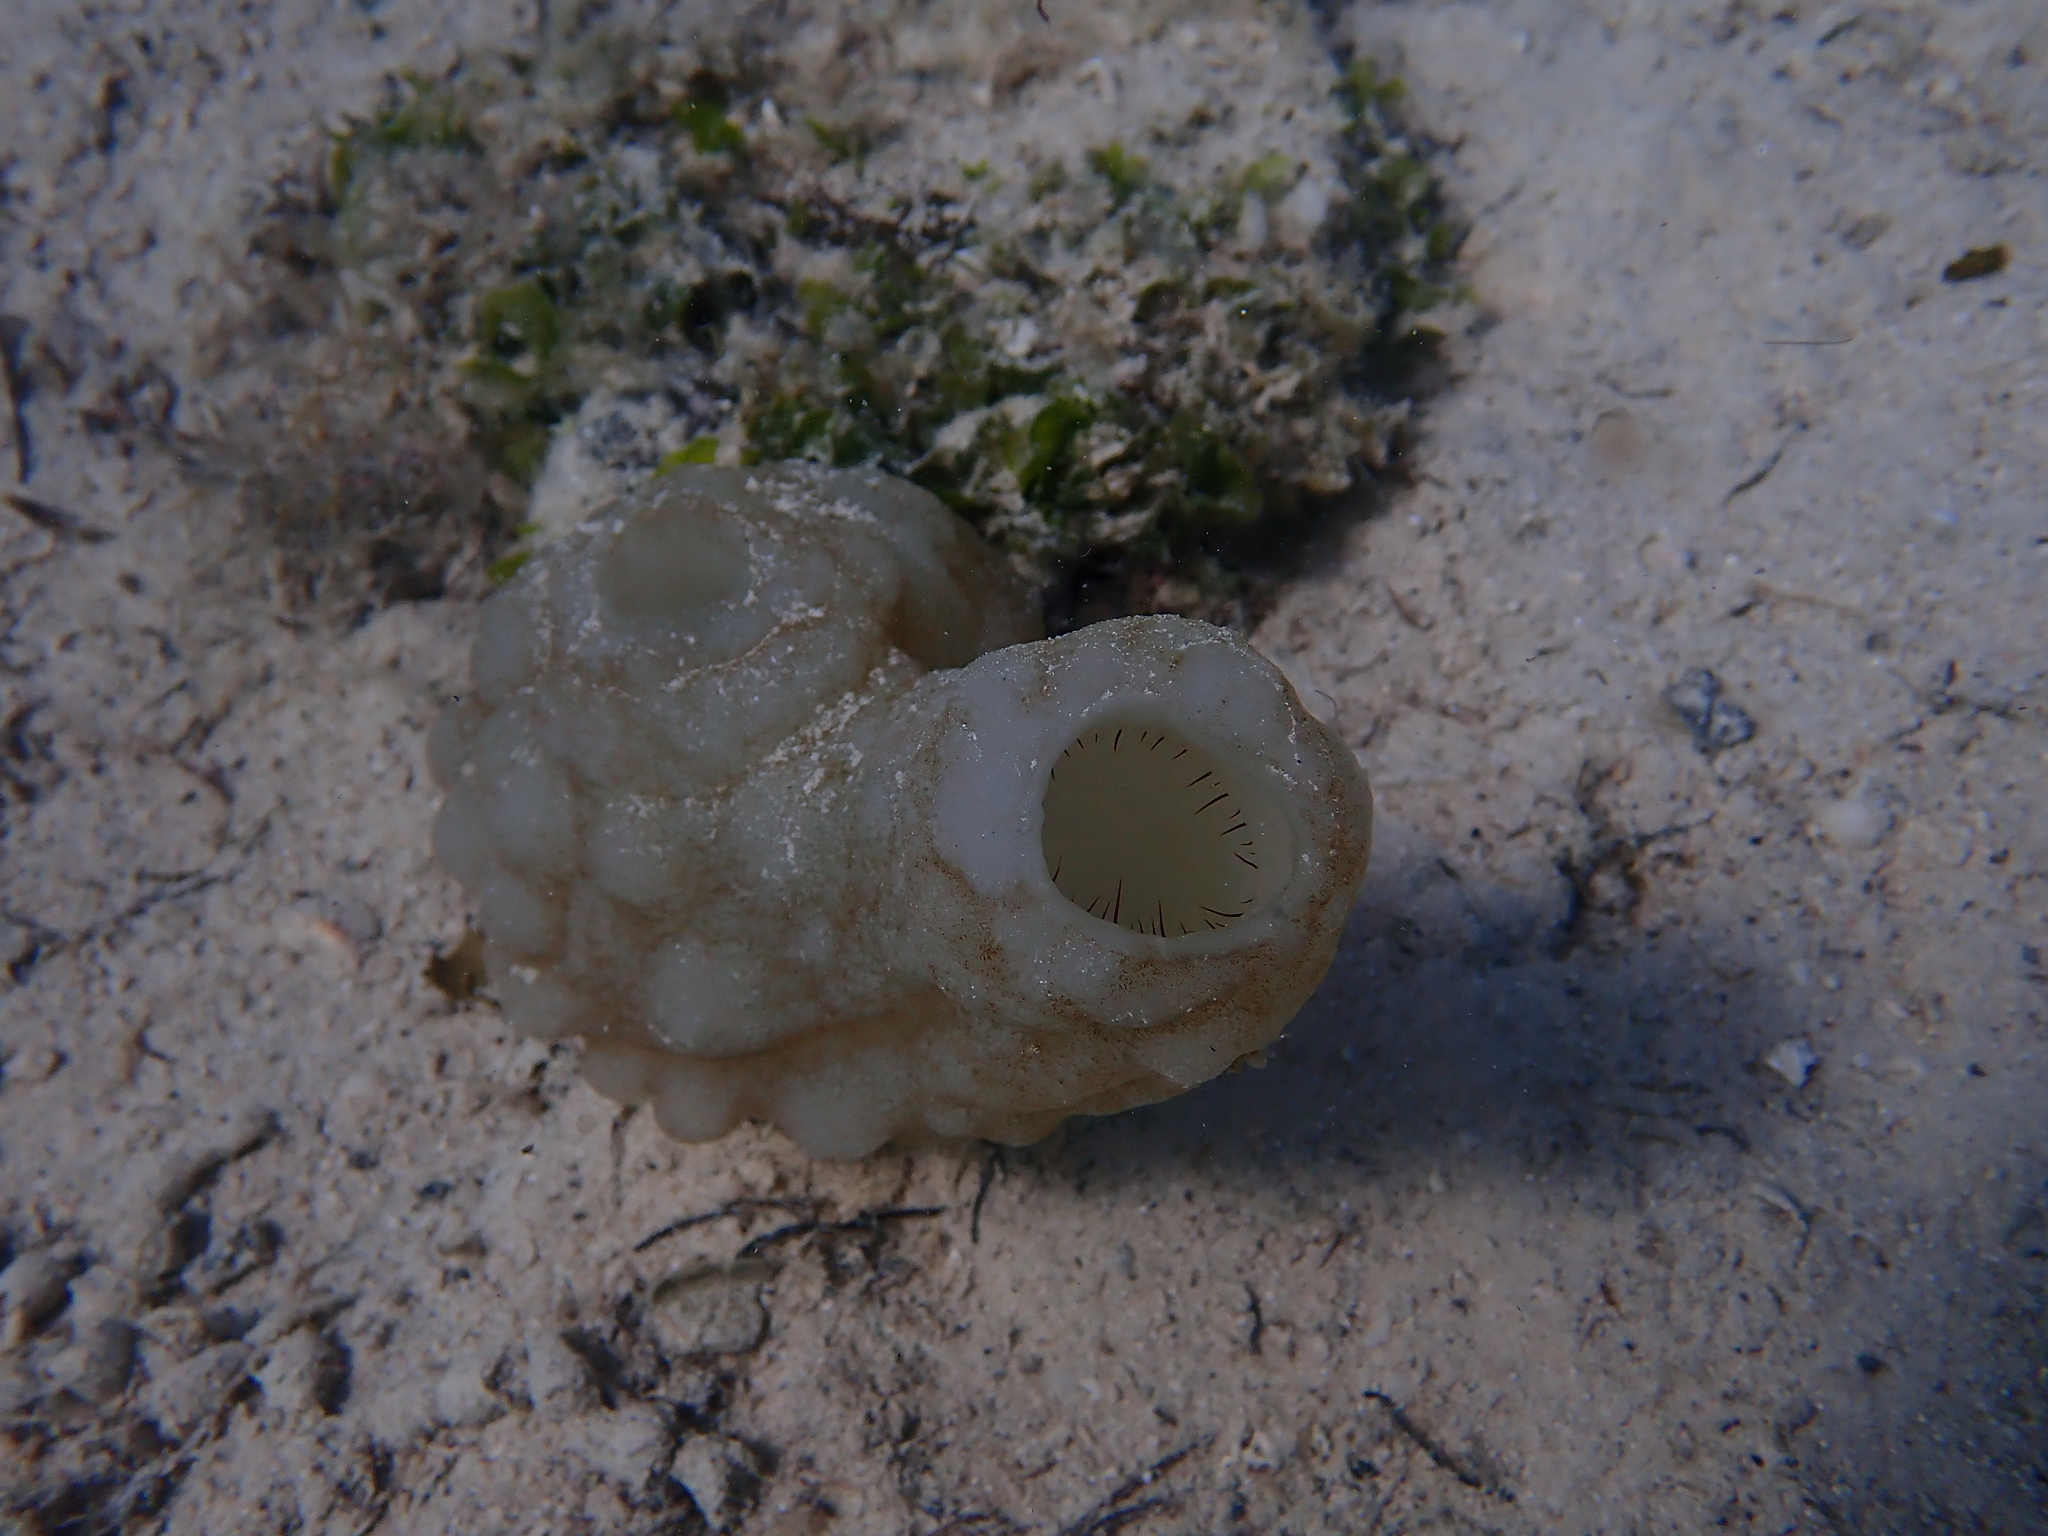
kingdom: Animalia
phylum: Chordata
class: Ascidiacea
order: Phlebobranchia
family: Ascidiidae
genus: Phallusia
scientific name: Phallusia mammillata
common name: Neptune's heart sea squirt
